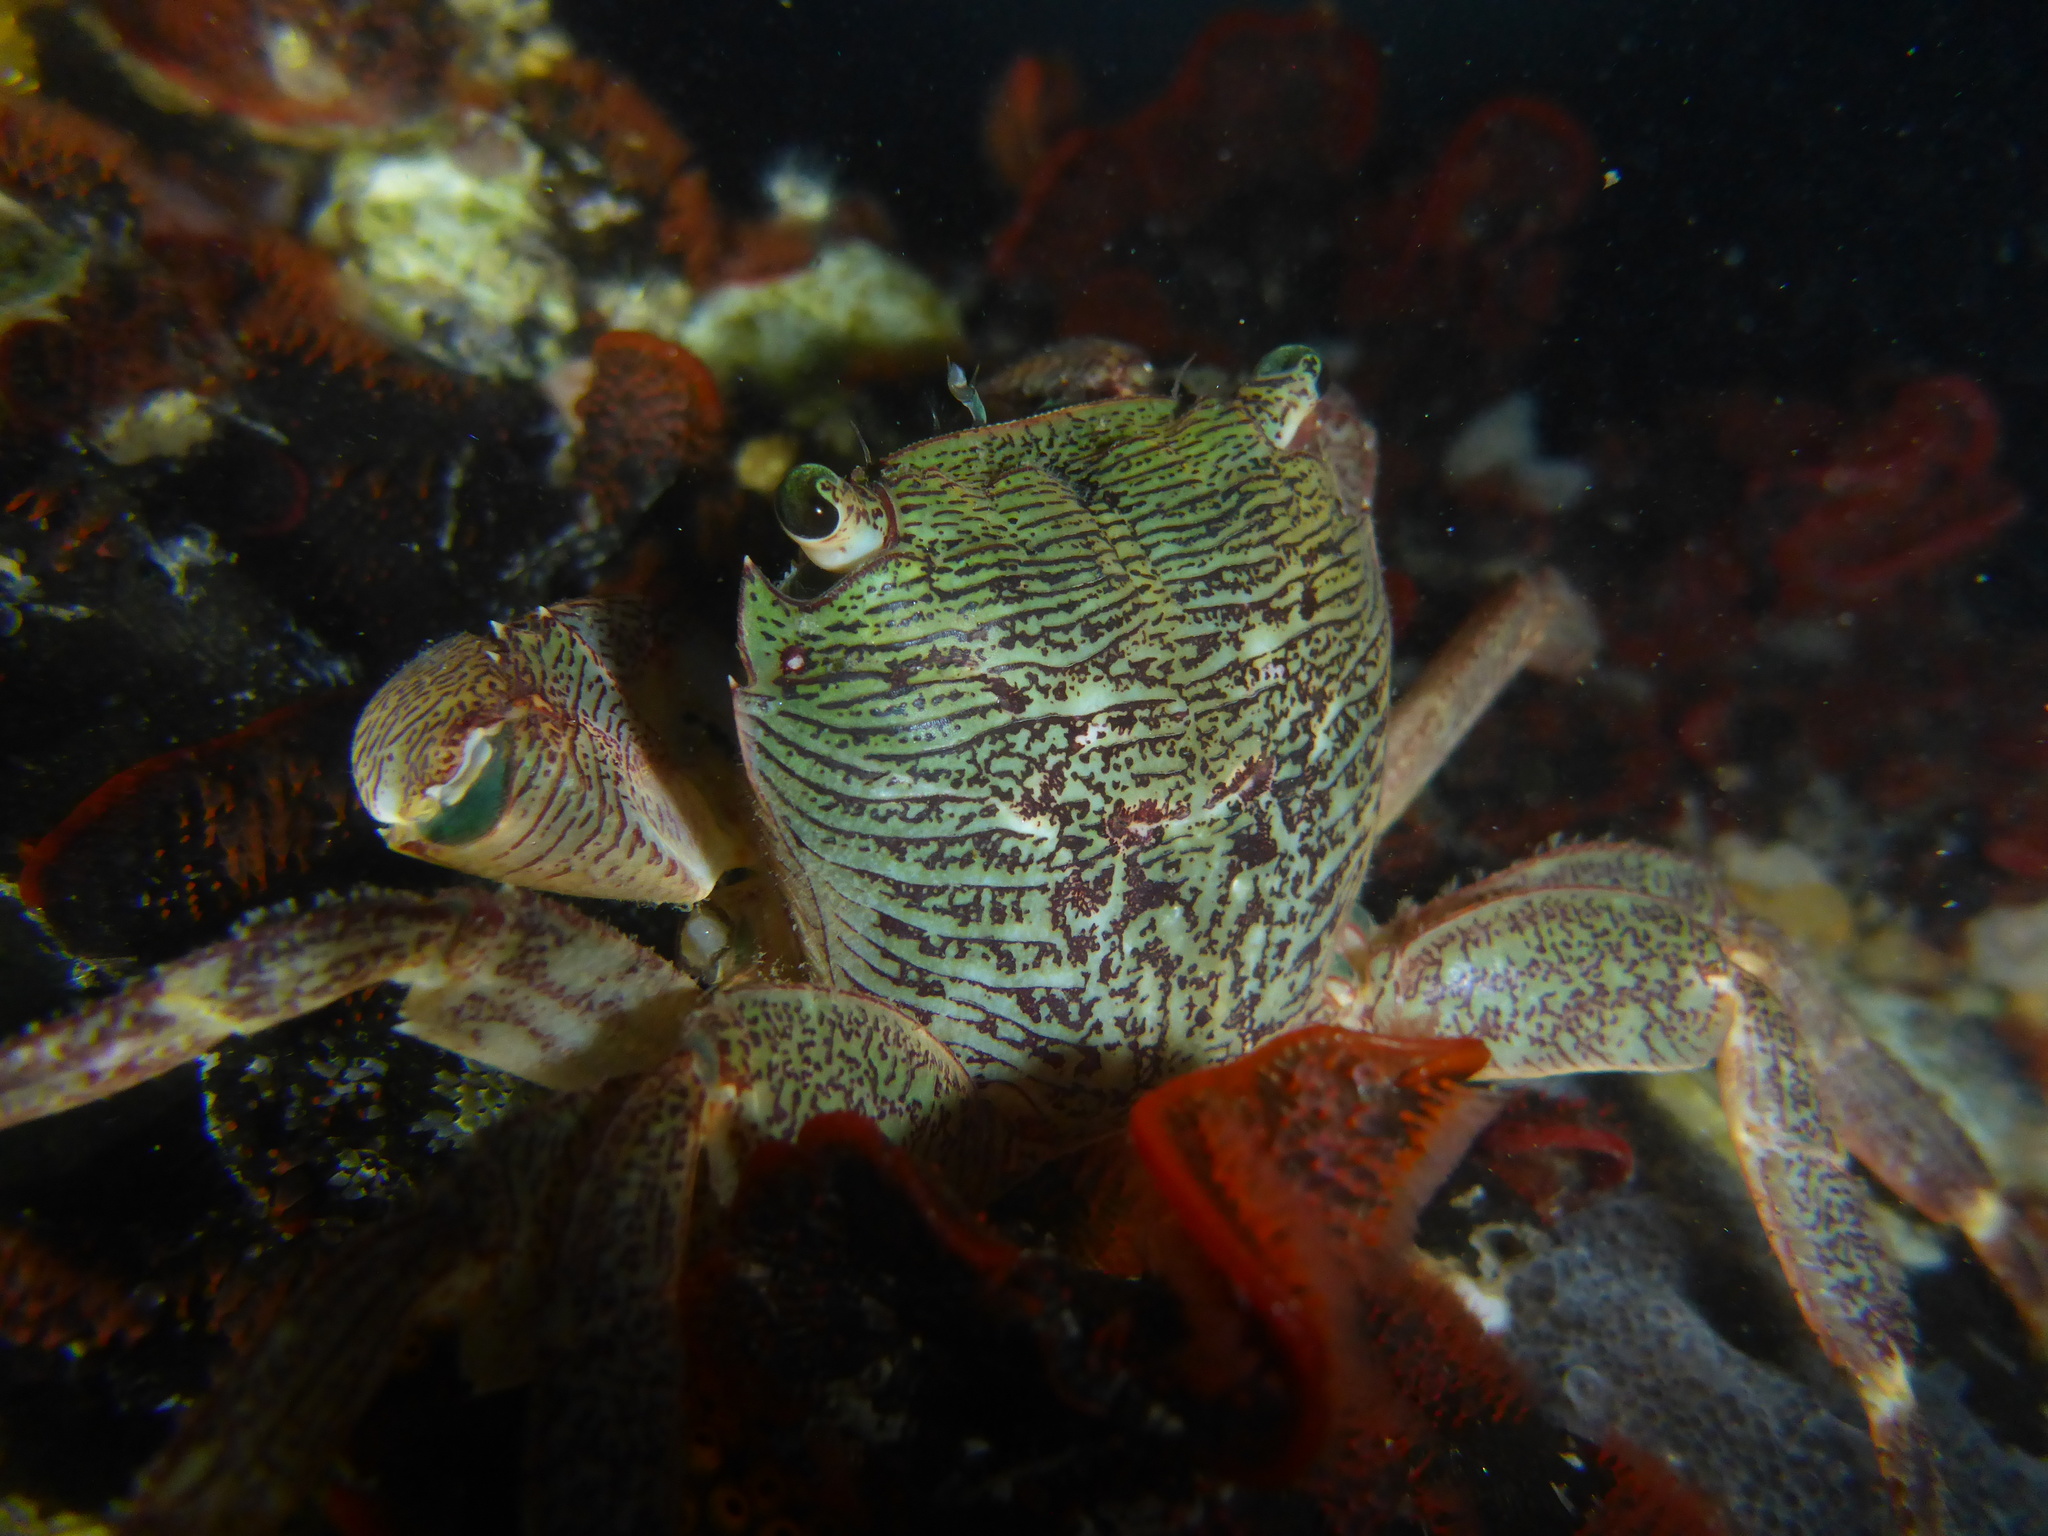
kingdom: Animalia
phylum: Arthropoda
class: Malacostraca
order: Decapoda
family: Grapsidae
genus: Pachygrapsus
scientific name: Pachygrapsus crassipes
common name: Striped shore crab
